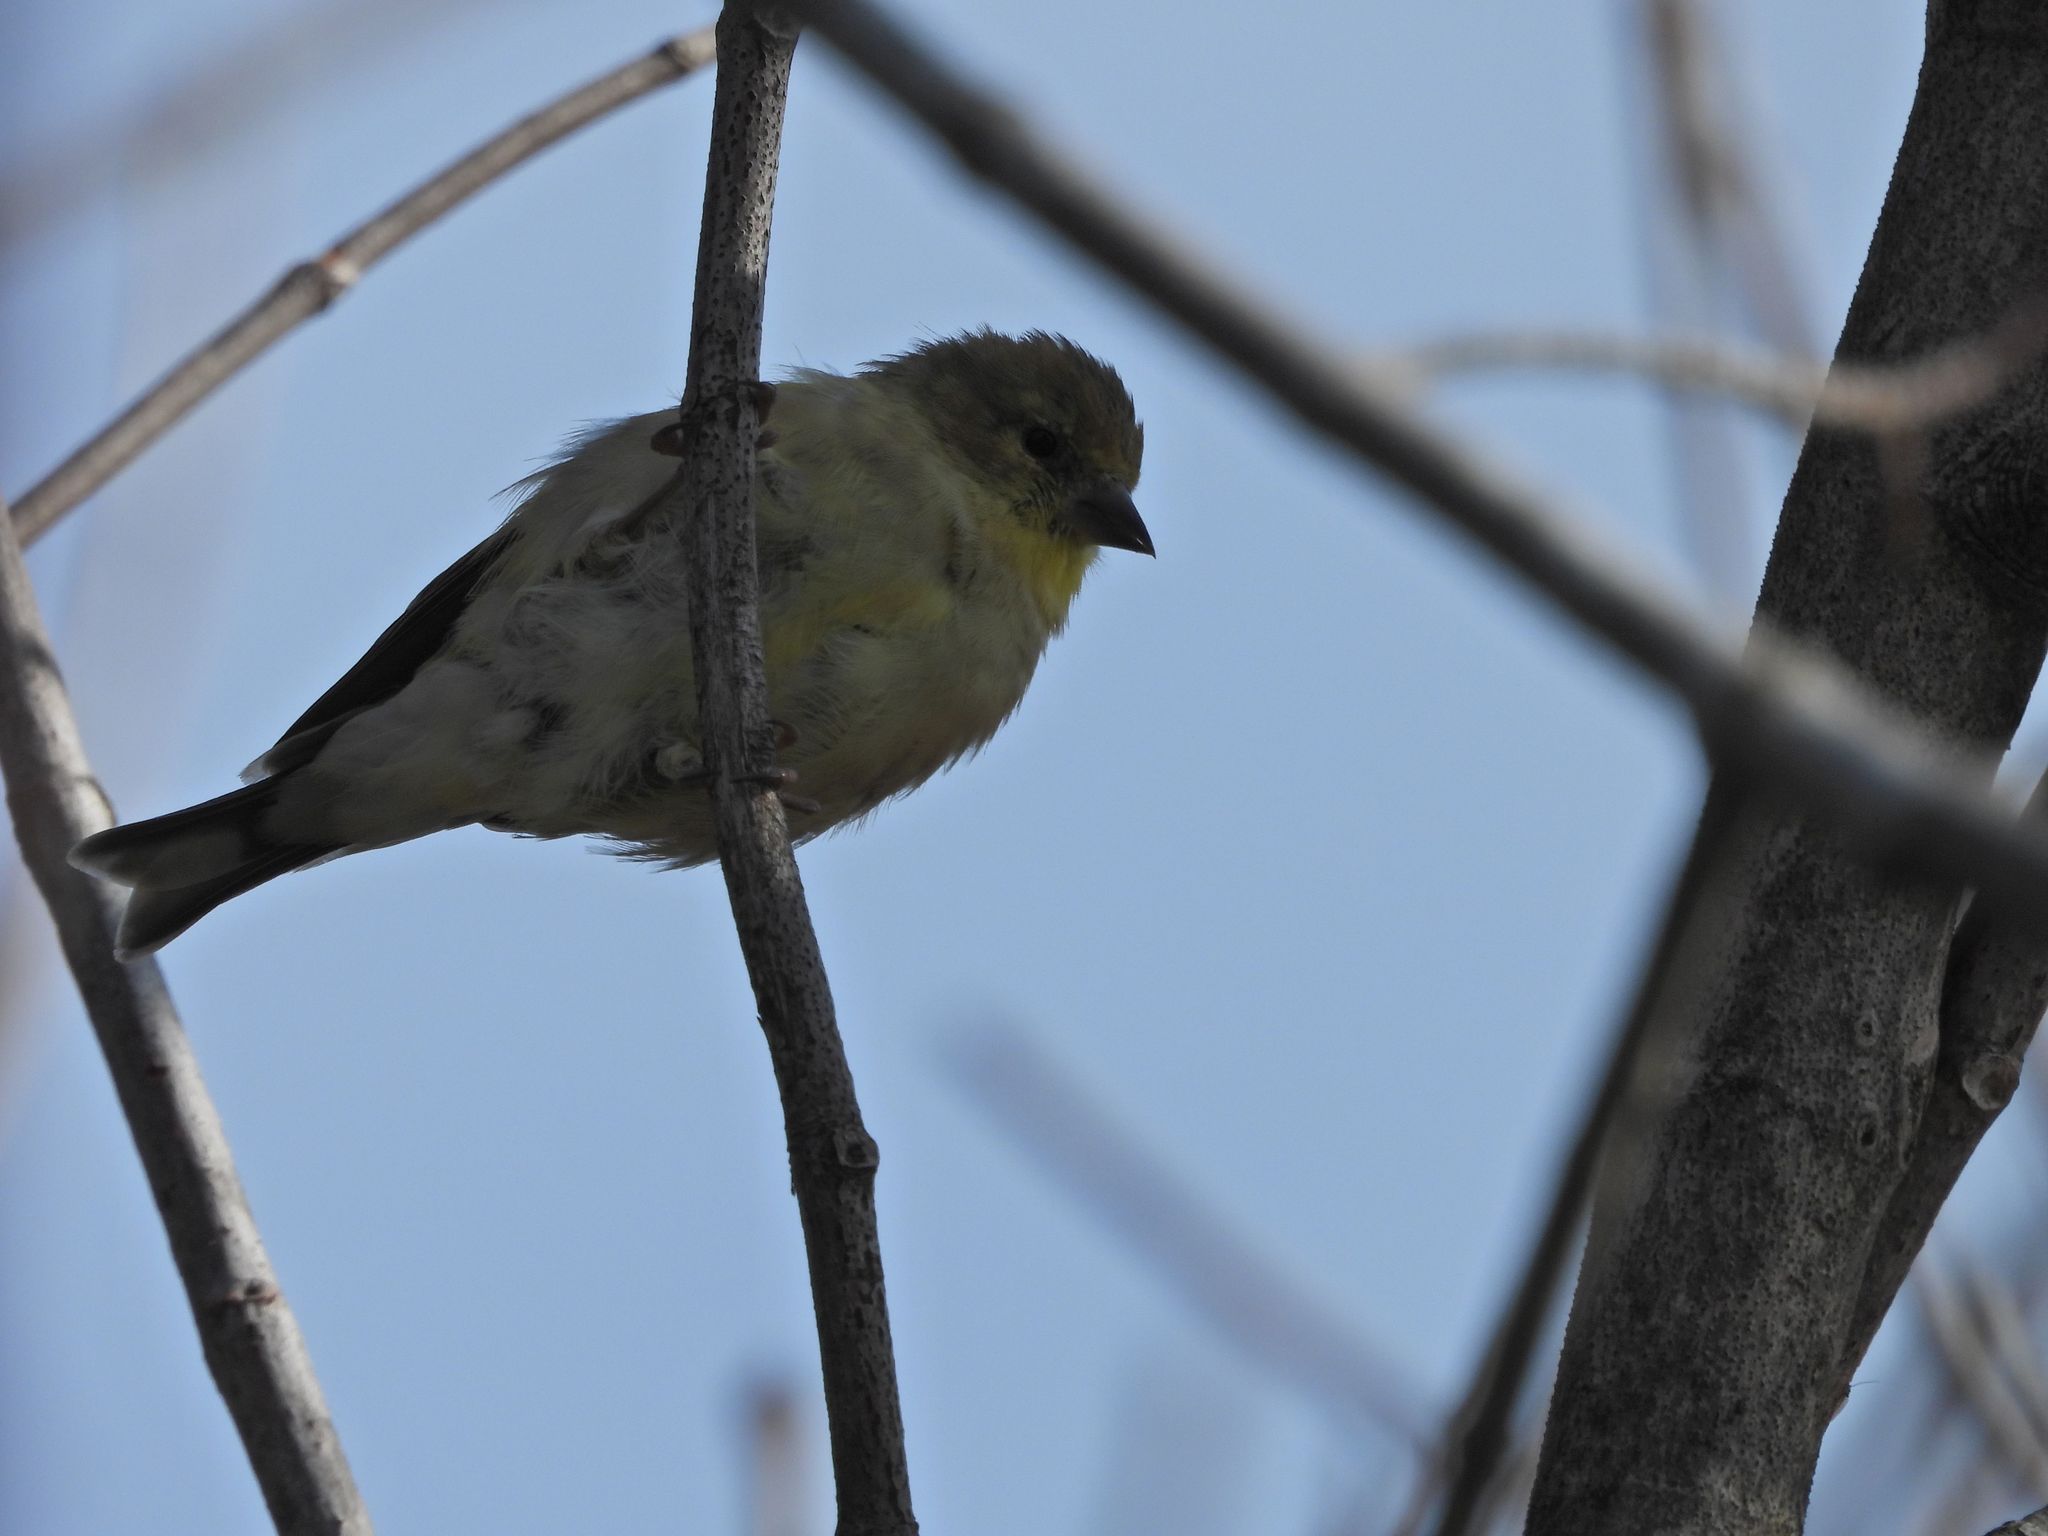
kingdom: Animalia
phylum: Chordata
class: Aves
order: Passeriformes
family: Fringillidae
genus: Spinus
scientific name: Spinus tristis
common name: American goldfinch
